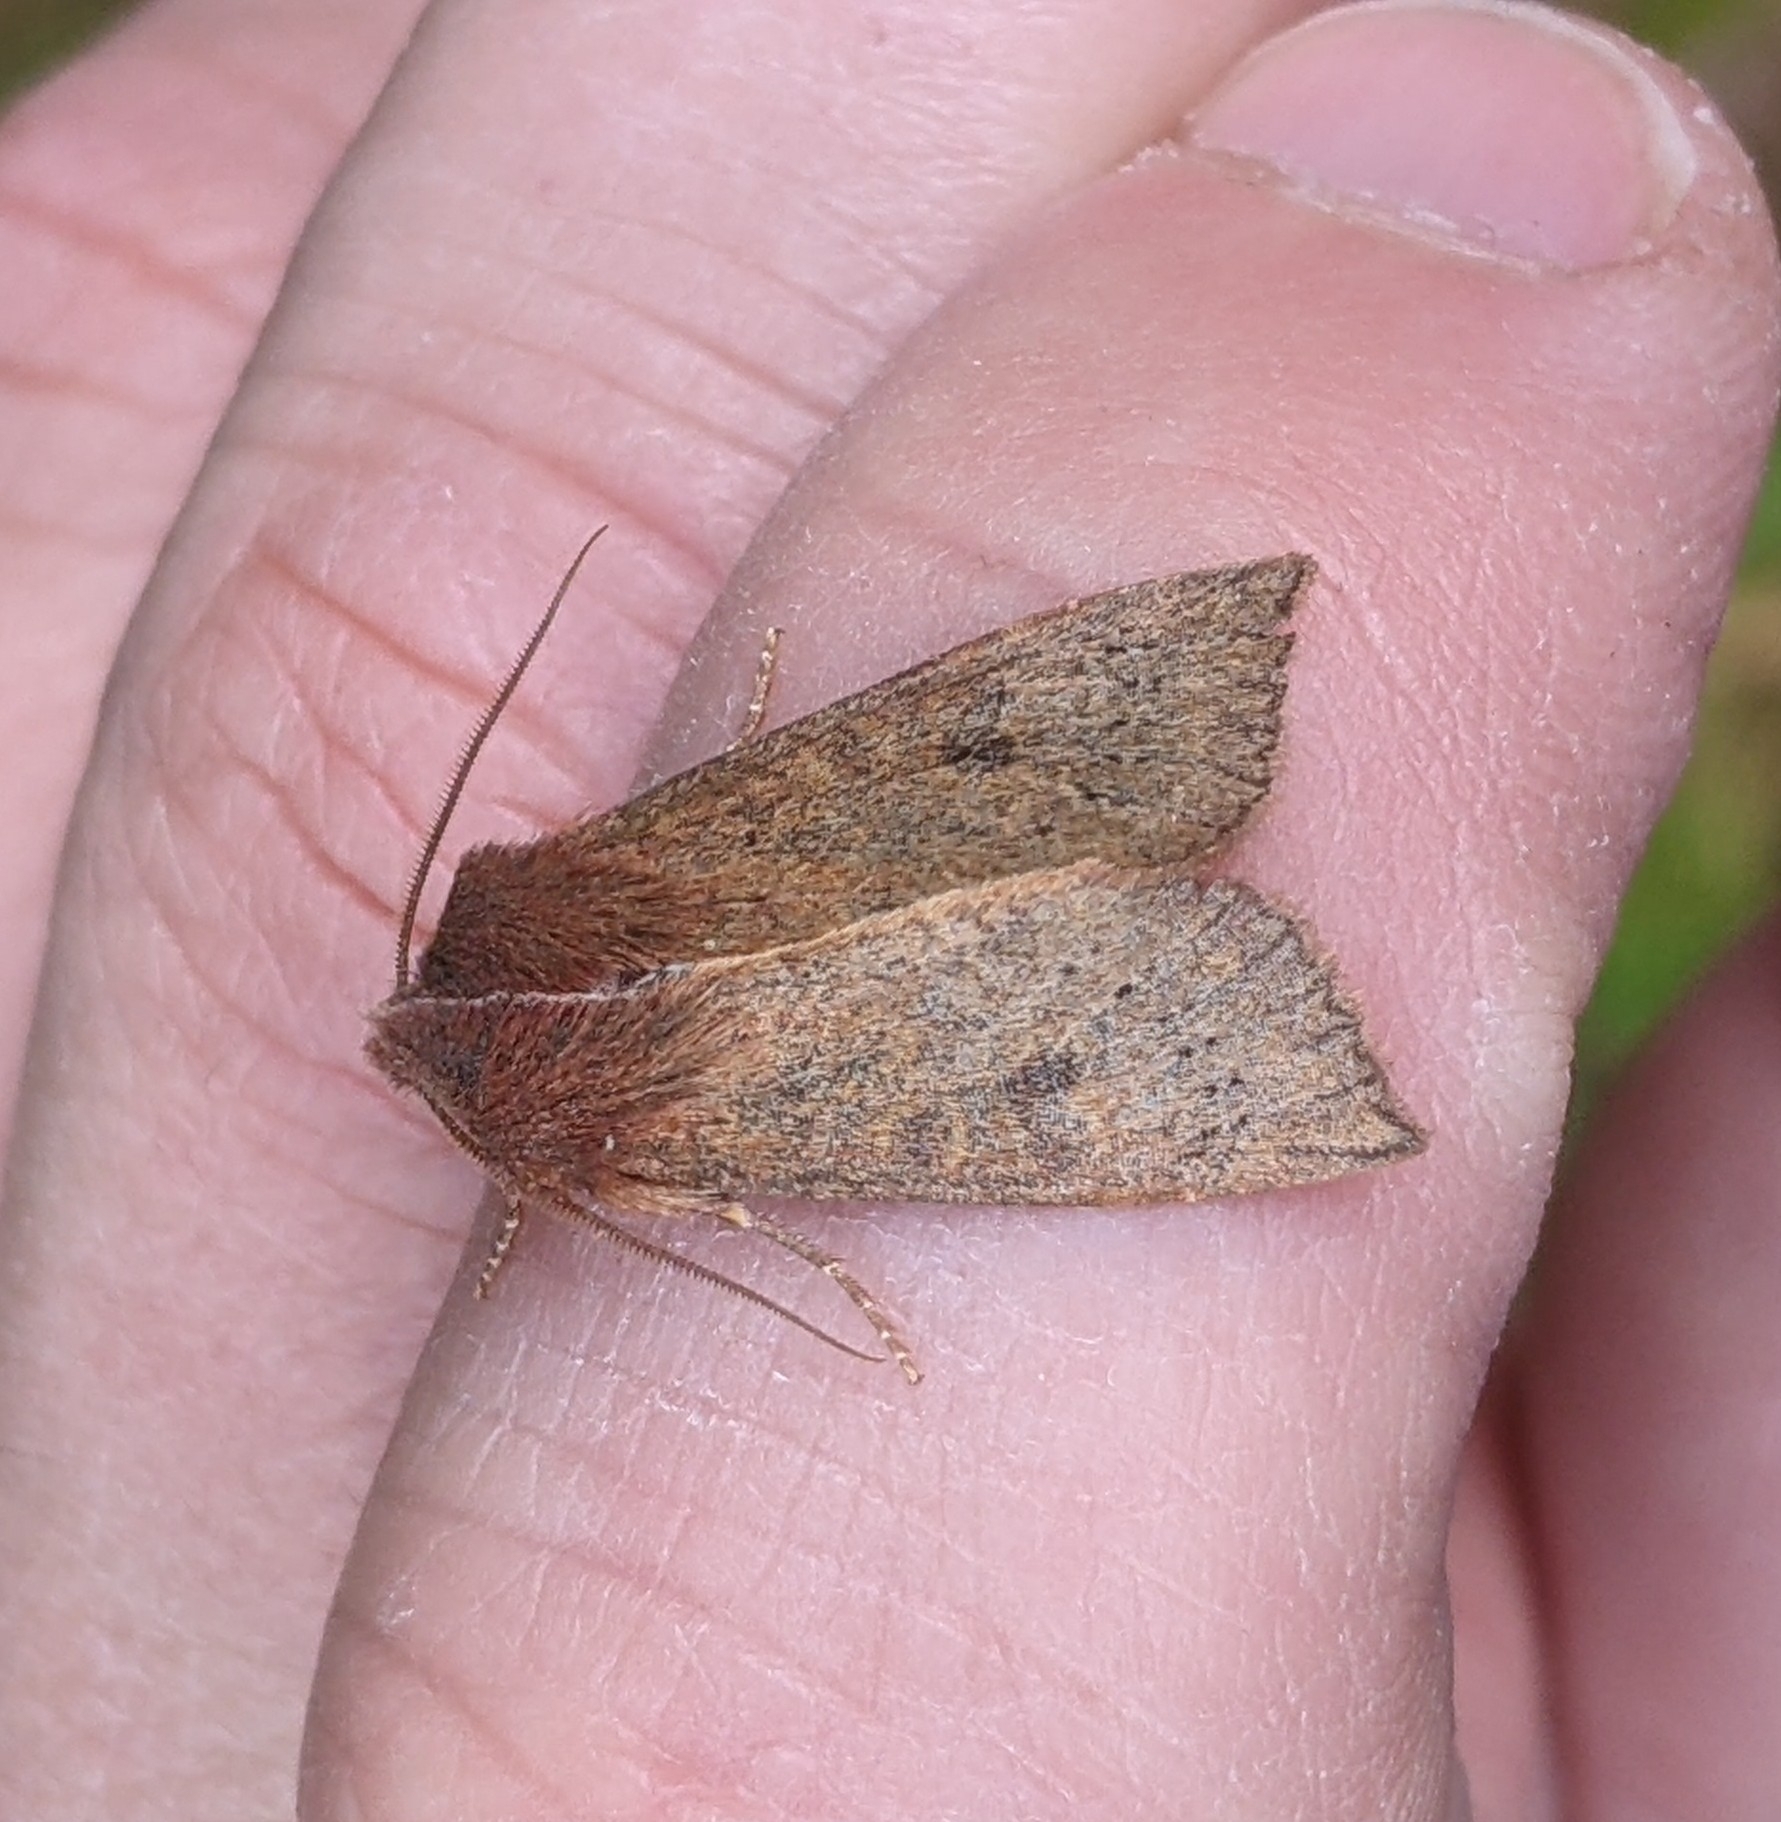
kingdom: Animalia
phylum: Arthropoda
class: Insecta
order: Lepidoptera
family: Noctuidae
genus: Orthosia
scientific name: Orthosia transparens
